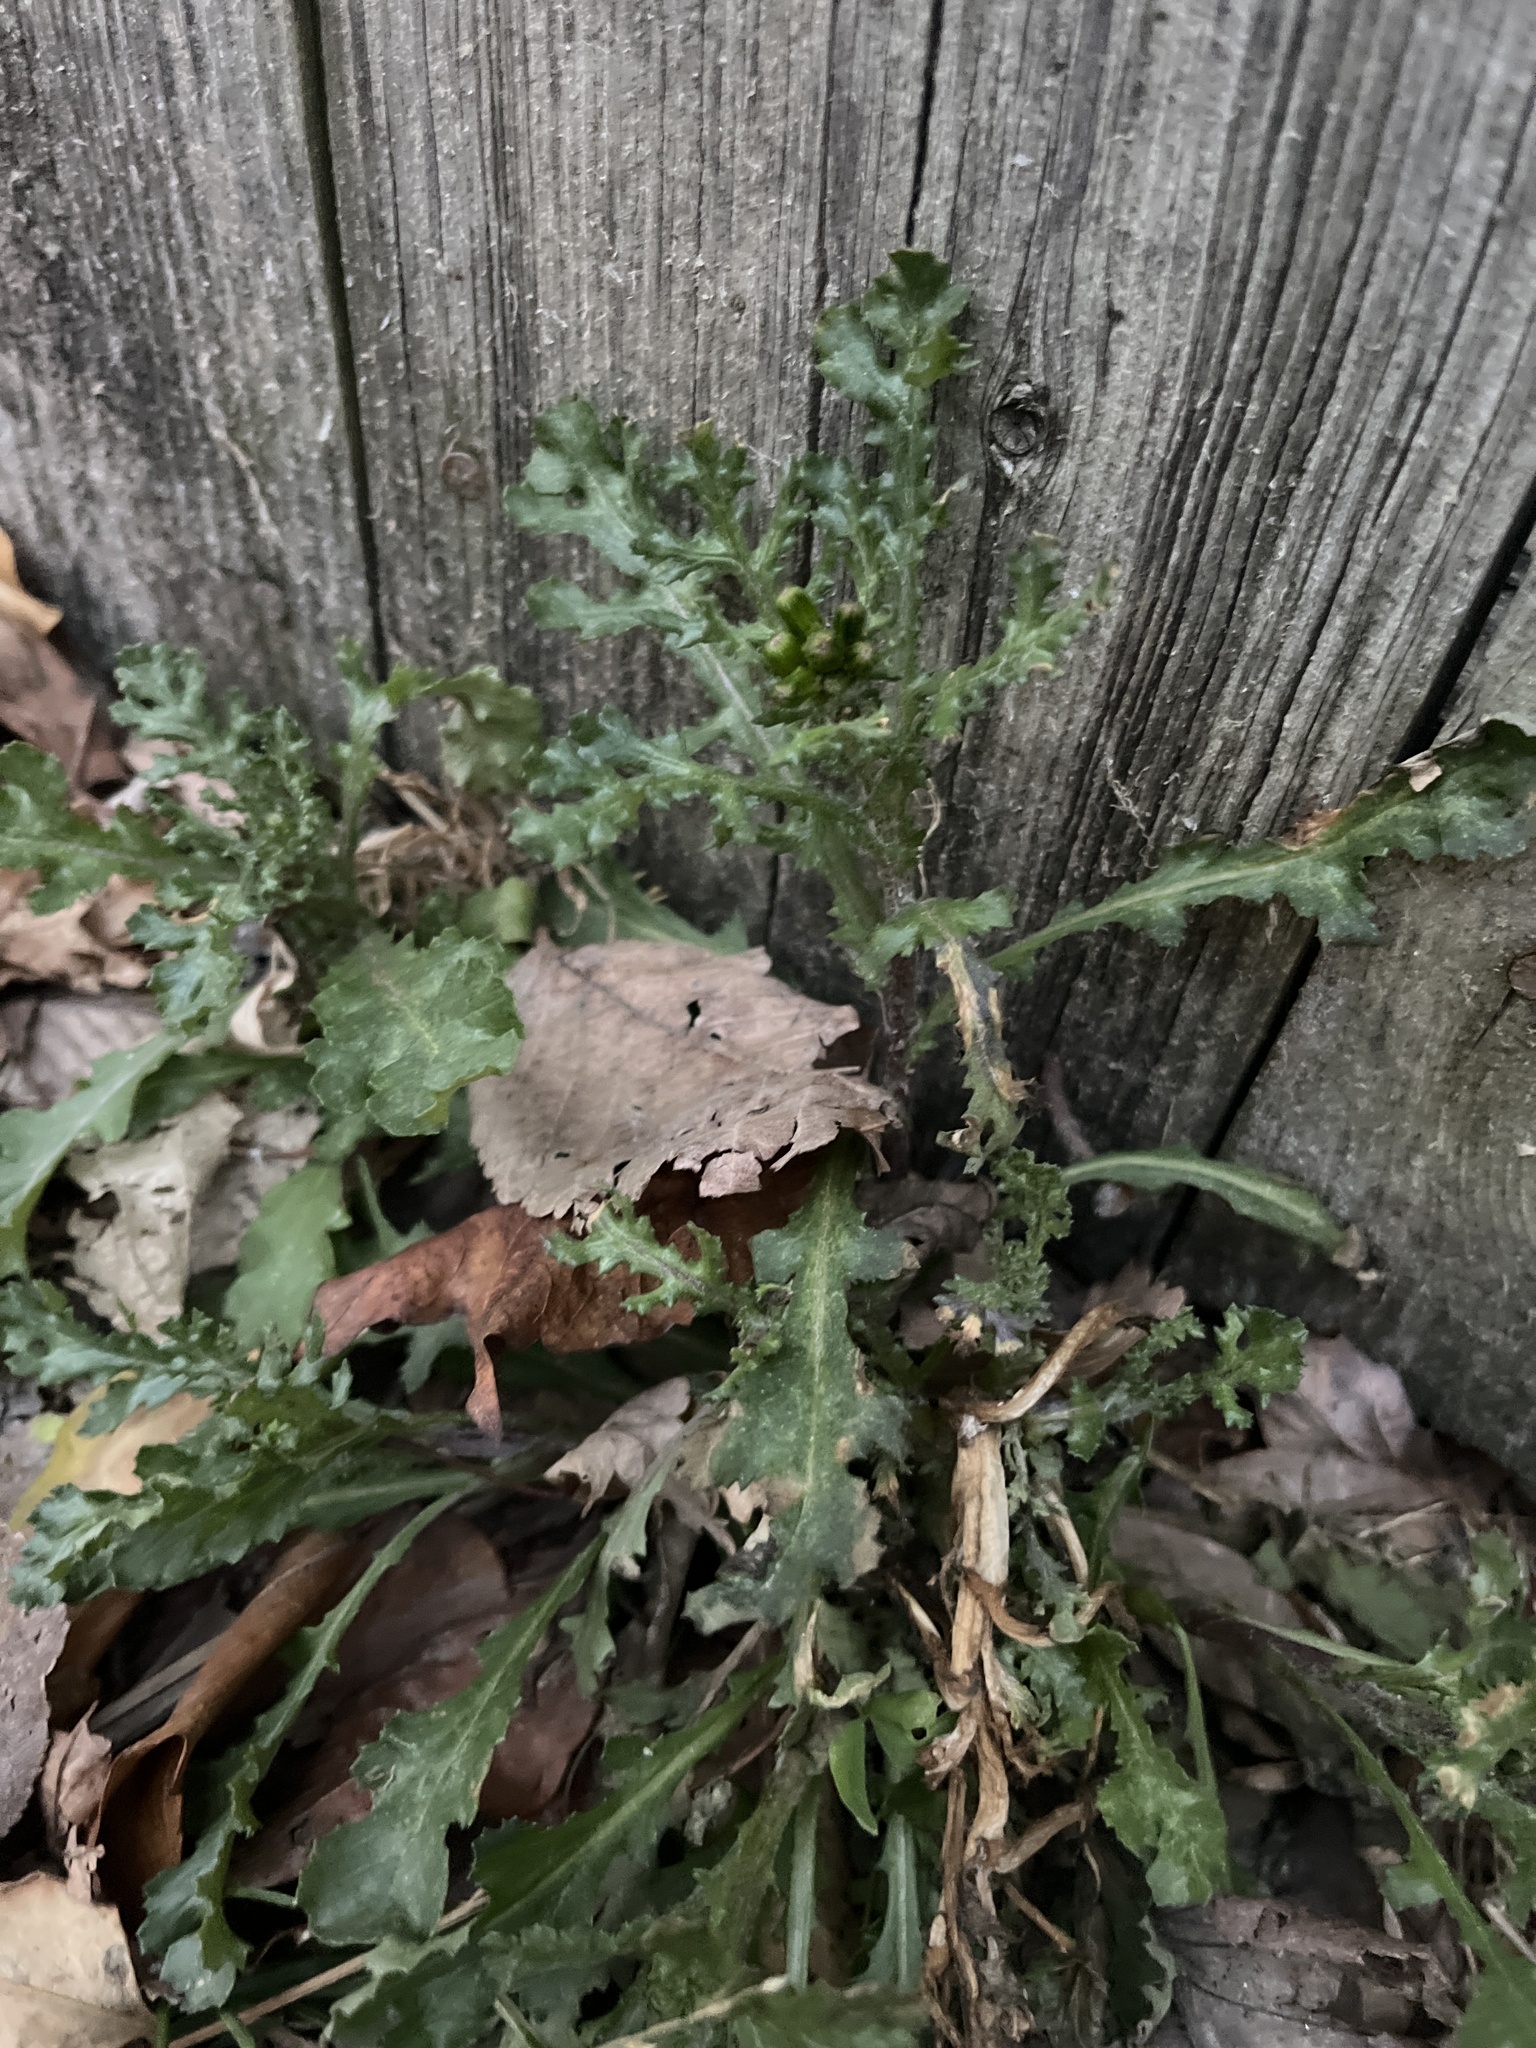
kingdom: Plantae
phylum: Tracheophyta
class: Magnoliopsida
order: Asterales
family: Asteraceae
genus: Senecio
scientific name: Senecio vulgaris
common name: Old-man-in-the-spring
